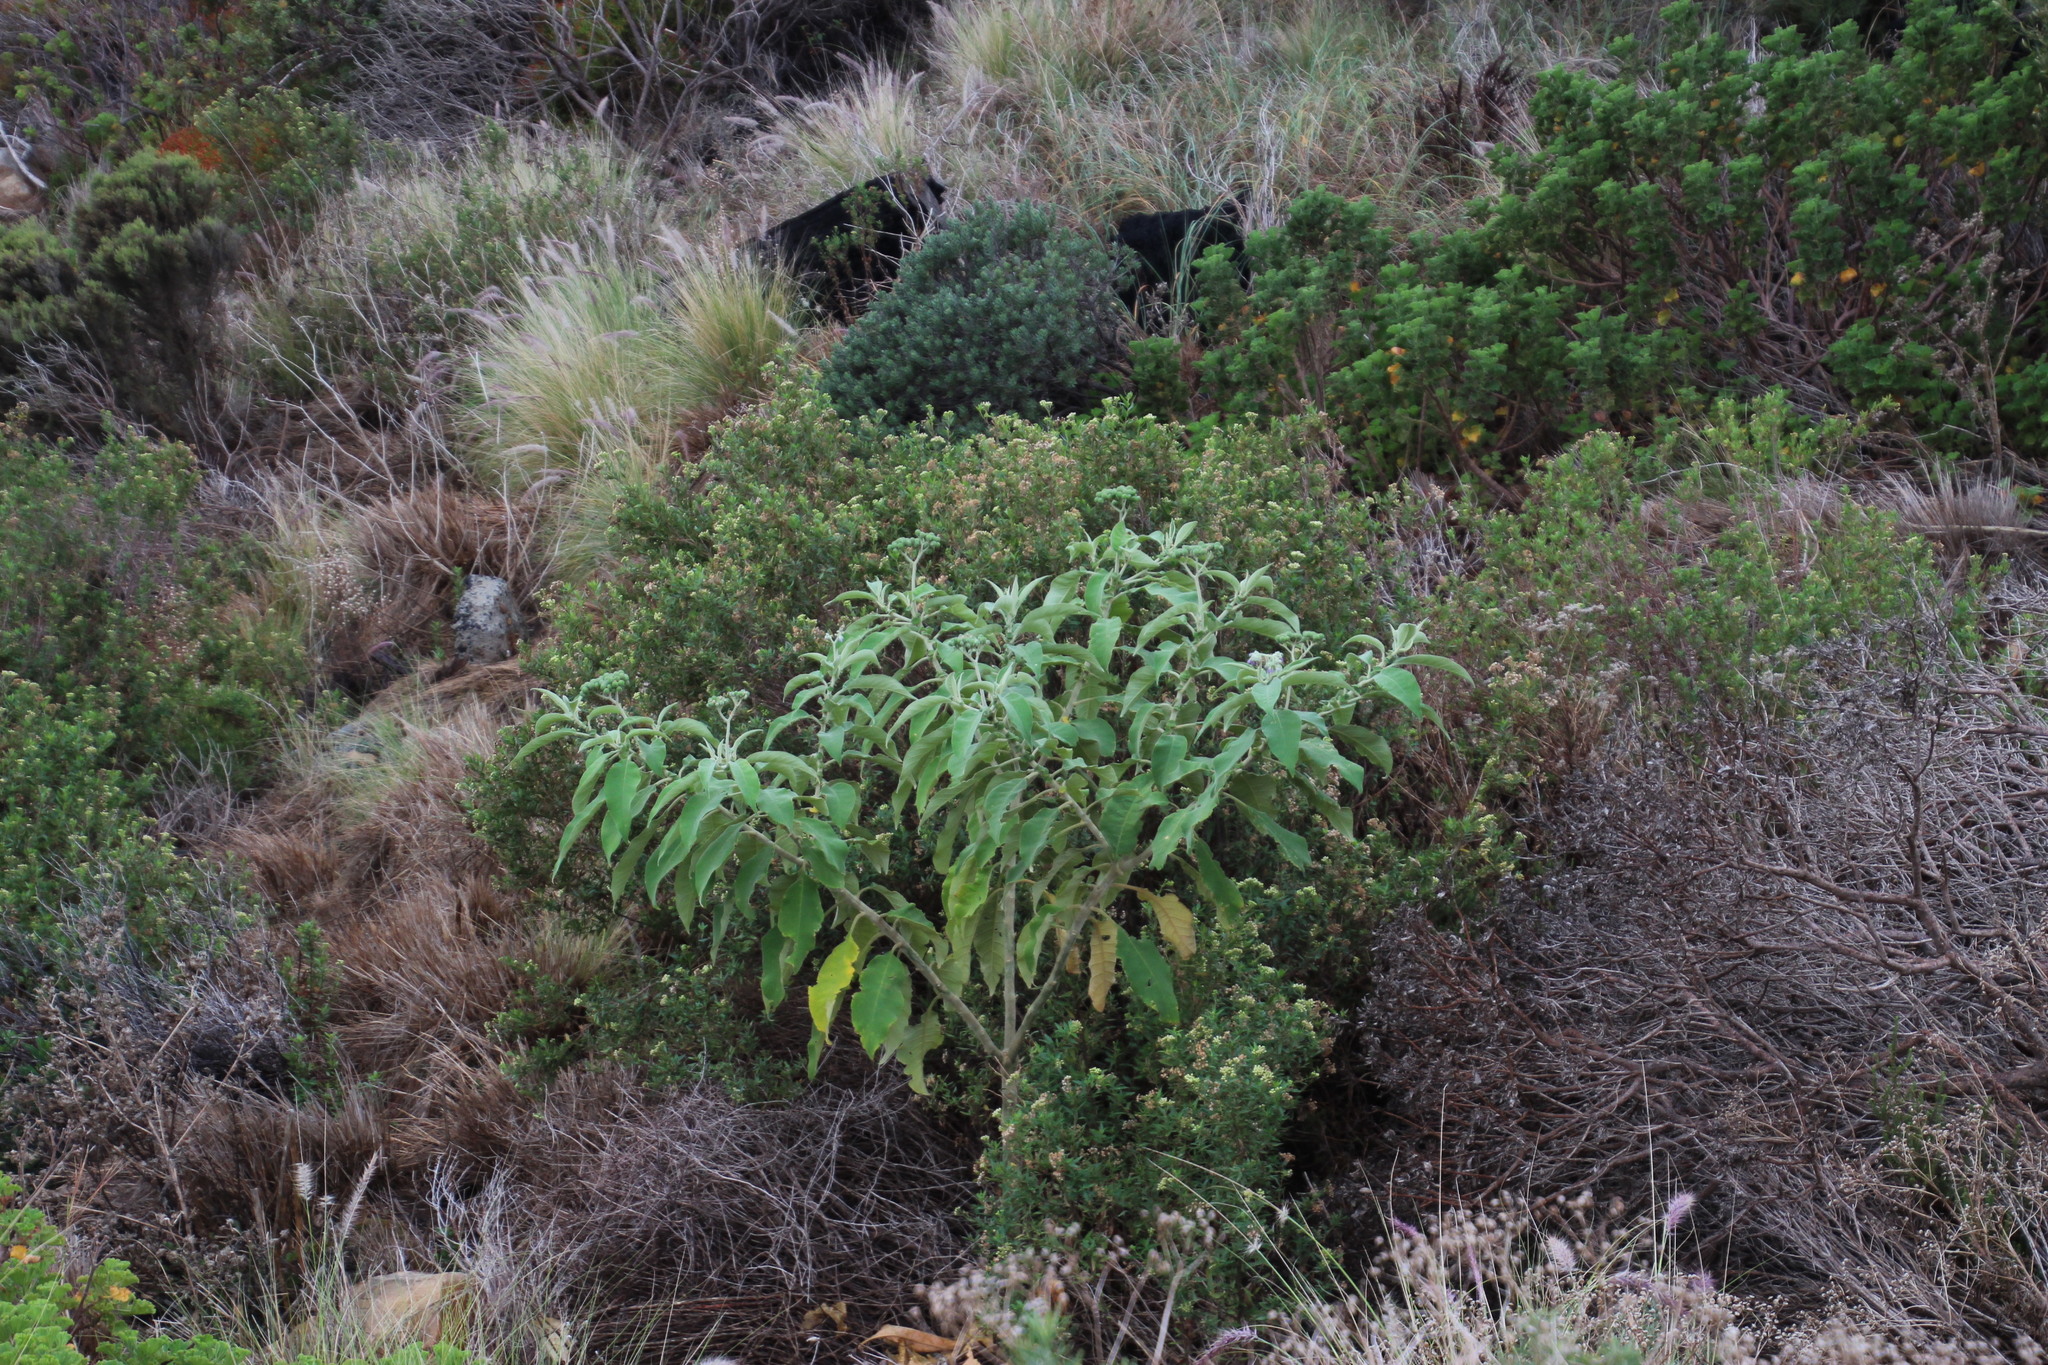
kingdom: Plantae
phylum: Tracheophyta
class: Magnoliopsida
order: Solanales
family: Solanaceae
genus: Solanum
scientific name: Solanum mauritianum
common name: Earleaf nightshade
